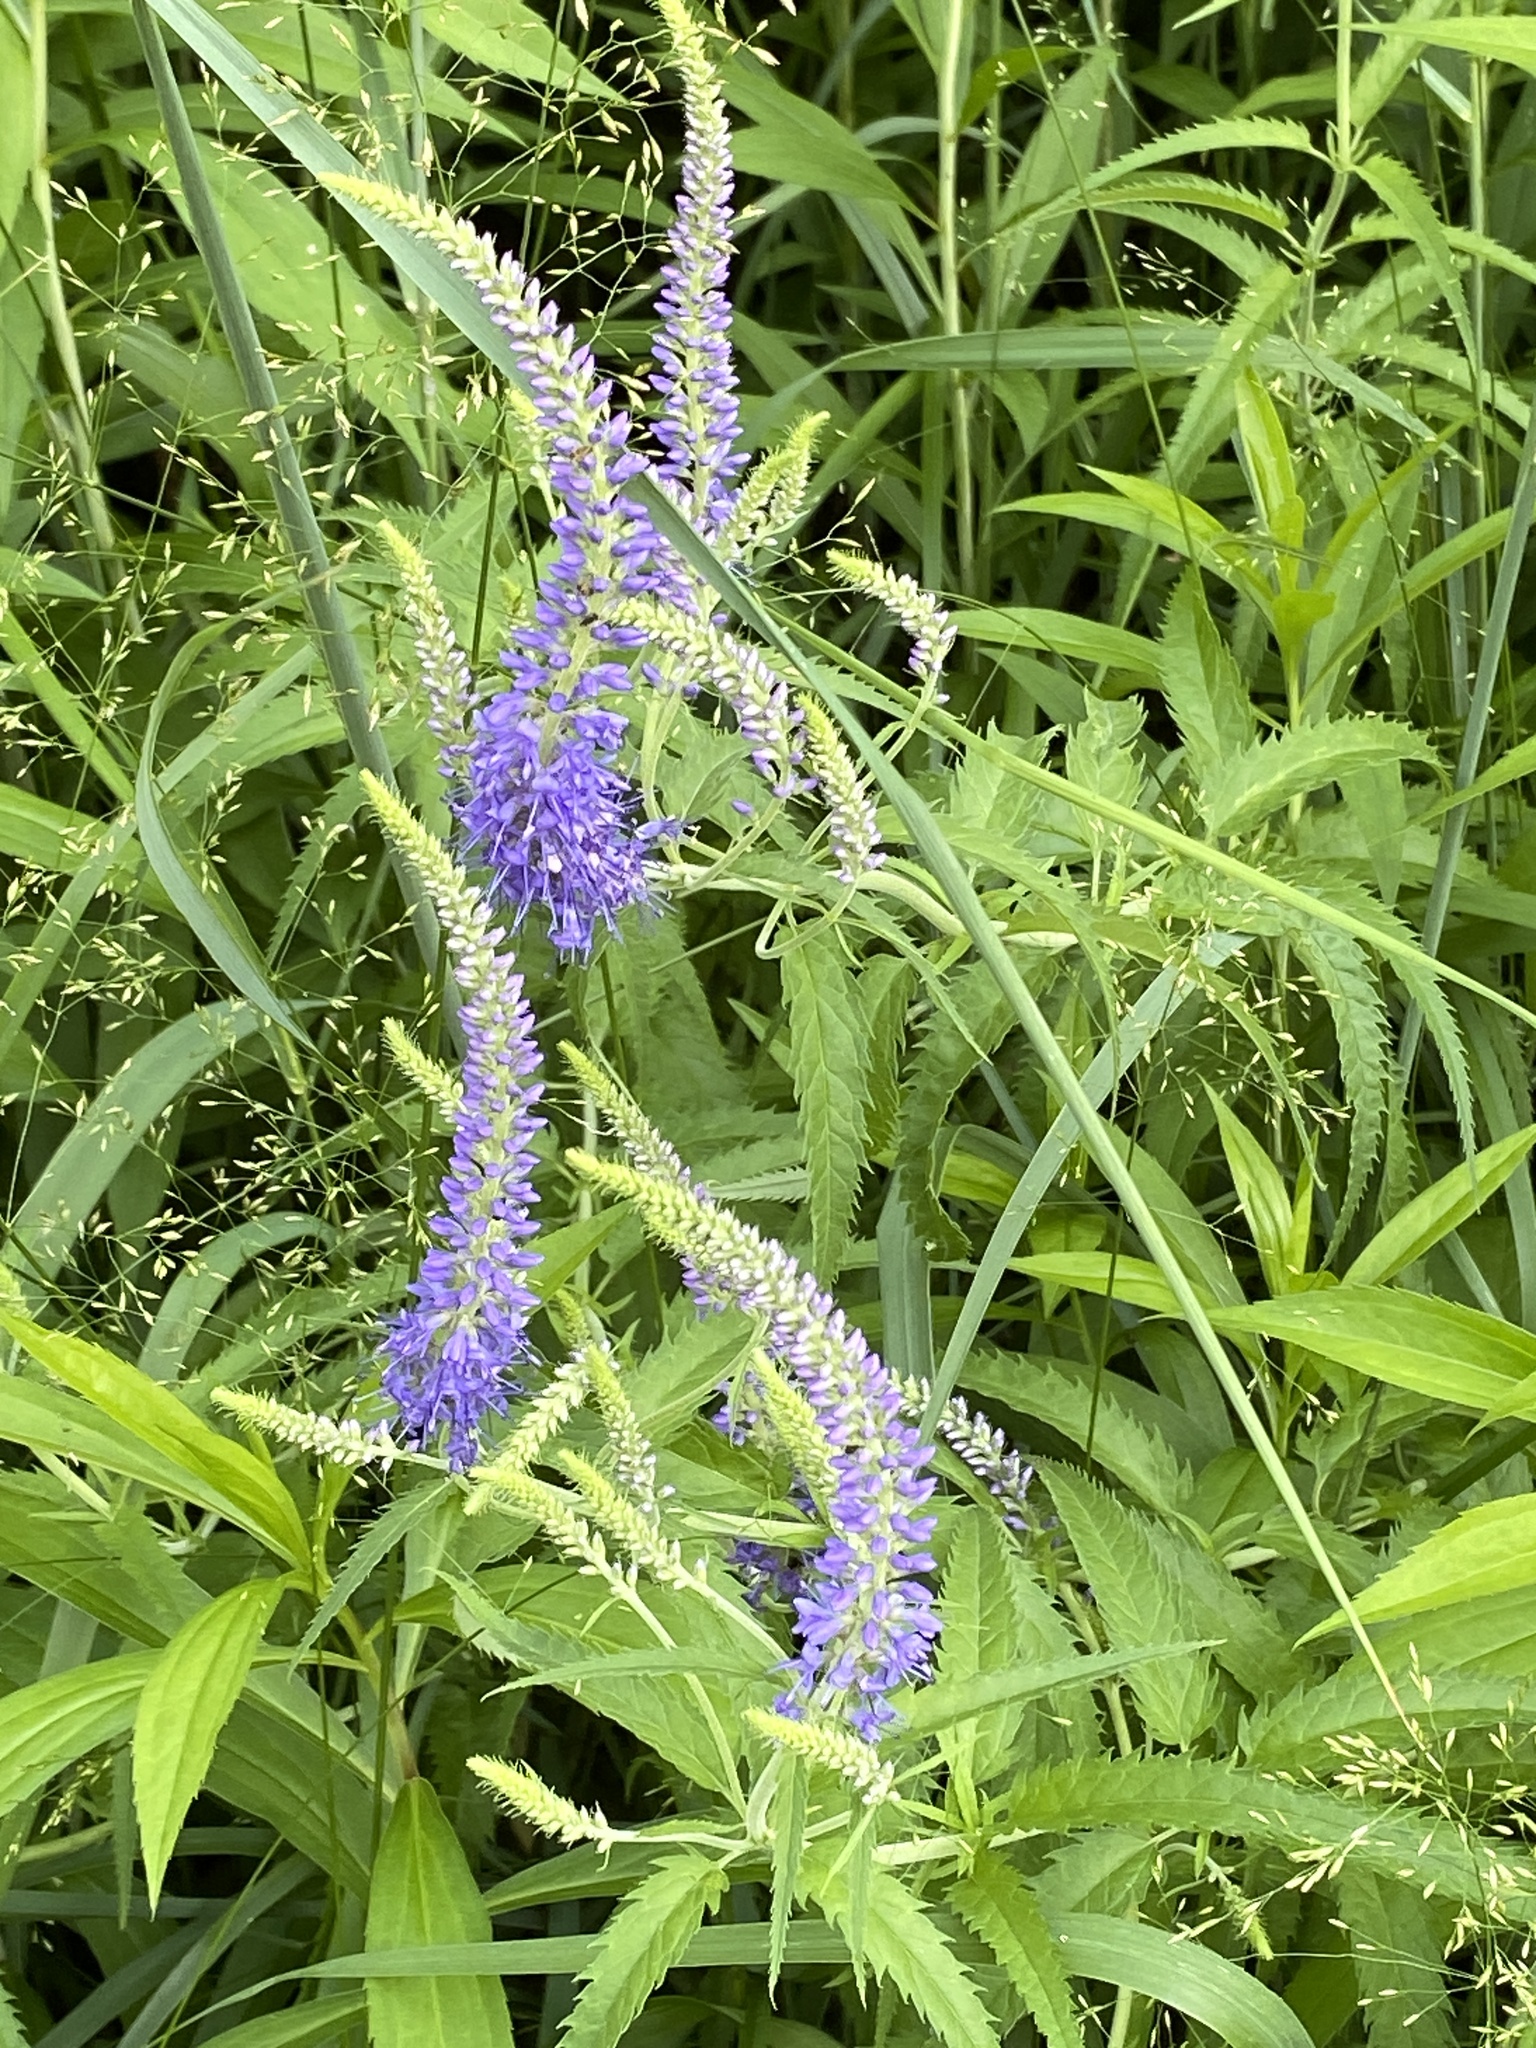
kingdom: Plantae
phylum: Tracheophyta
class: Magnoliopsida
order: Lamiales
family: Plantaginaceae
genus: Veronica
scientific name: Veronica longifolia
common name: Garden speedwell
